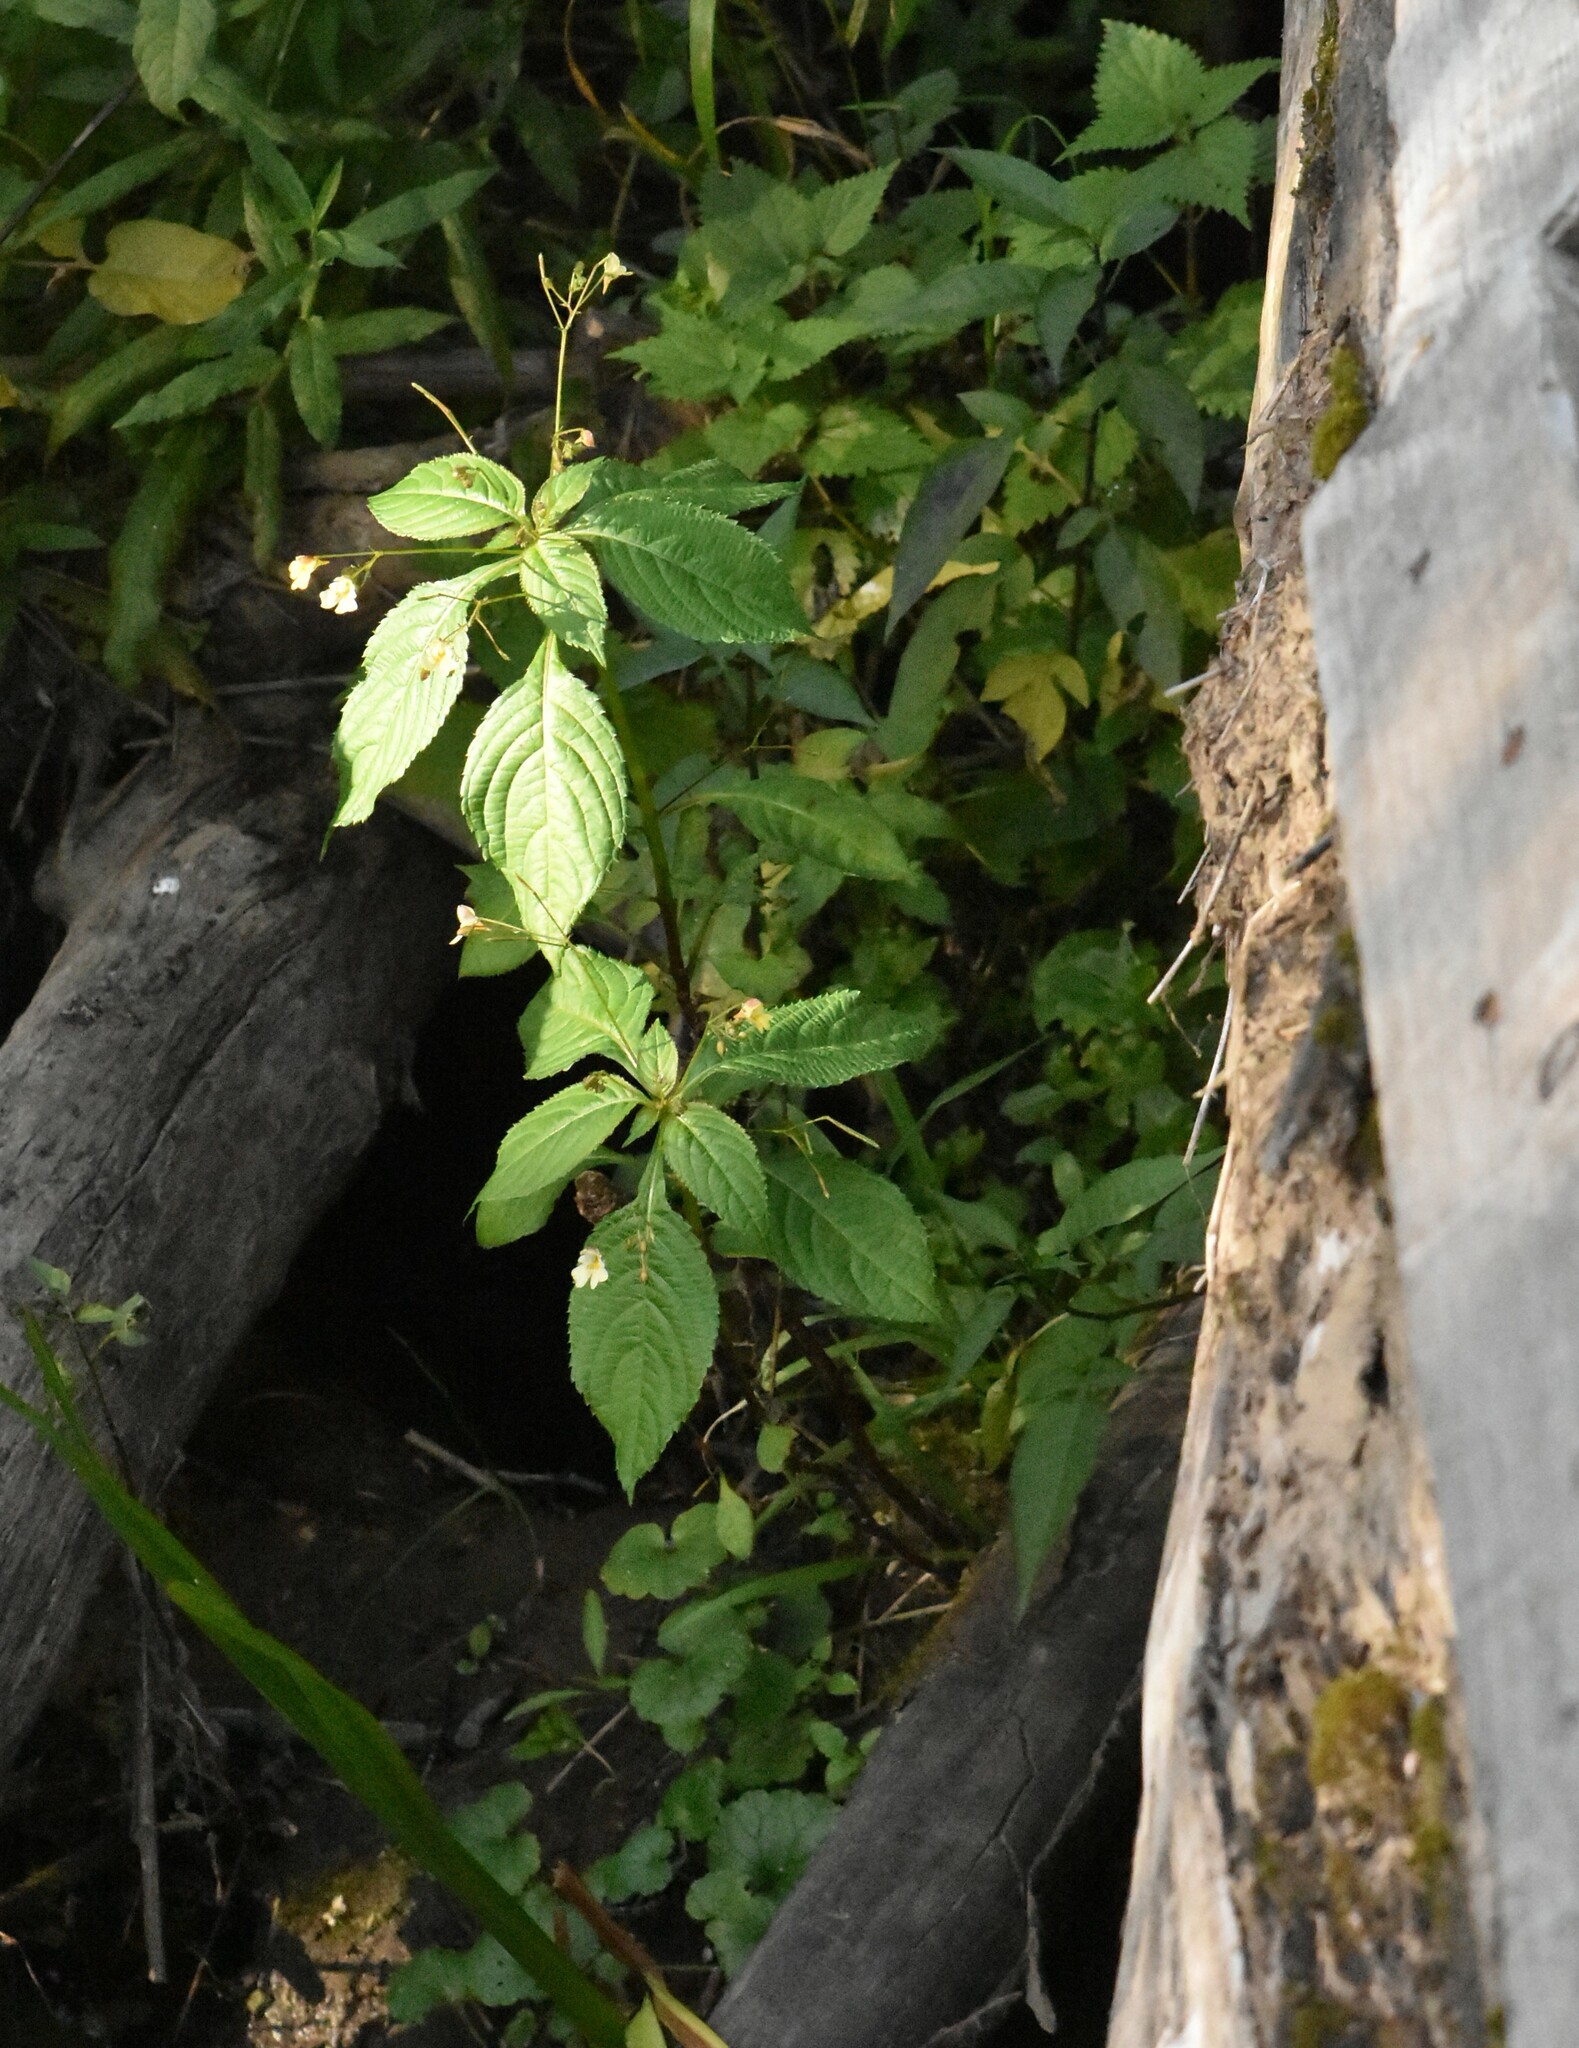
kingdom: Plantae
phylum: Tracheophyta
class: Magnoliopsida
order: Ericales
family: Balsaminaceae
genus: Impatiens
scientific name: Impatiens parviflora
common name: Small balsam
